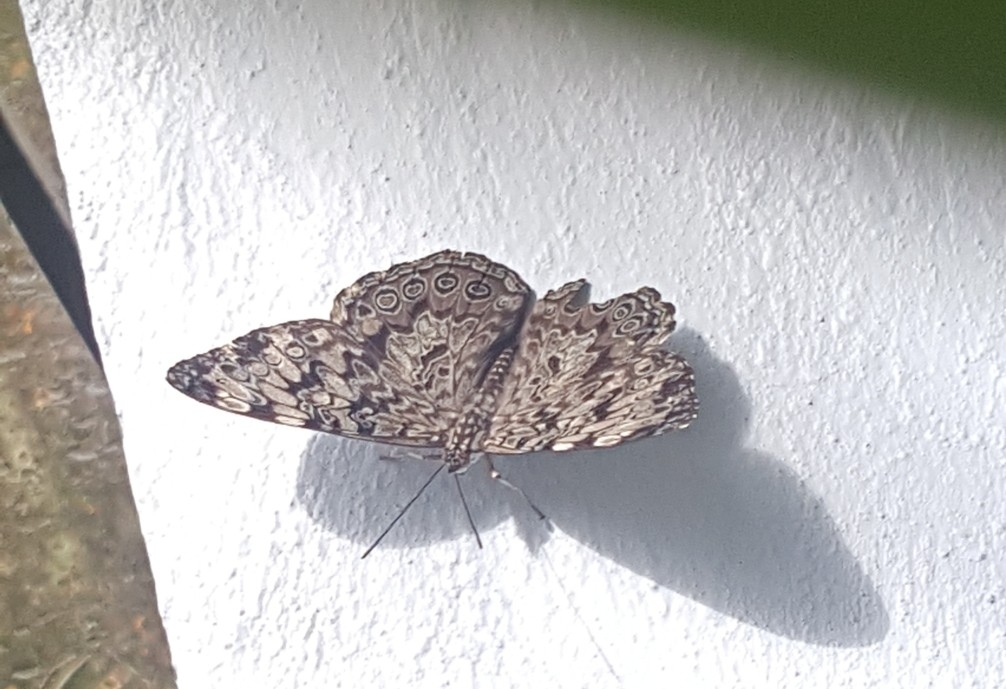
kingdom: Animalia
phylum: Arthropoda
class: Insecta
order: Lepidoptera
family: Nymphalidae
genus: Hamadryas
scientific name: Hamadryas guatemalena
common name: Guatemalan cracker
